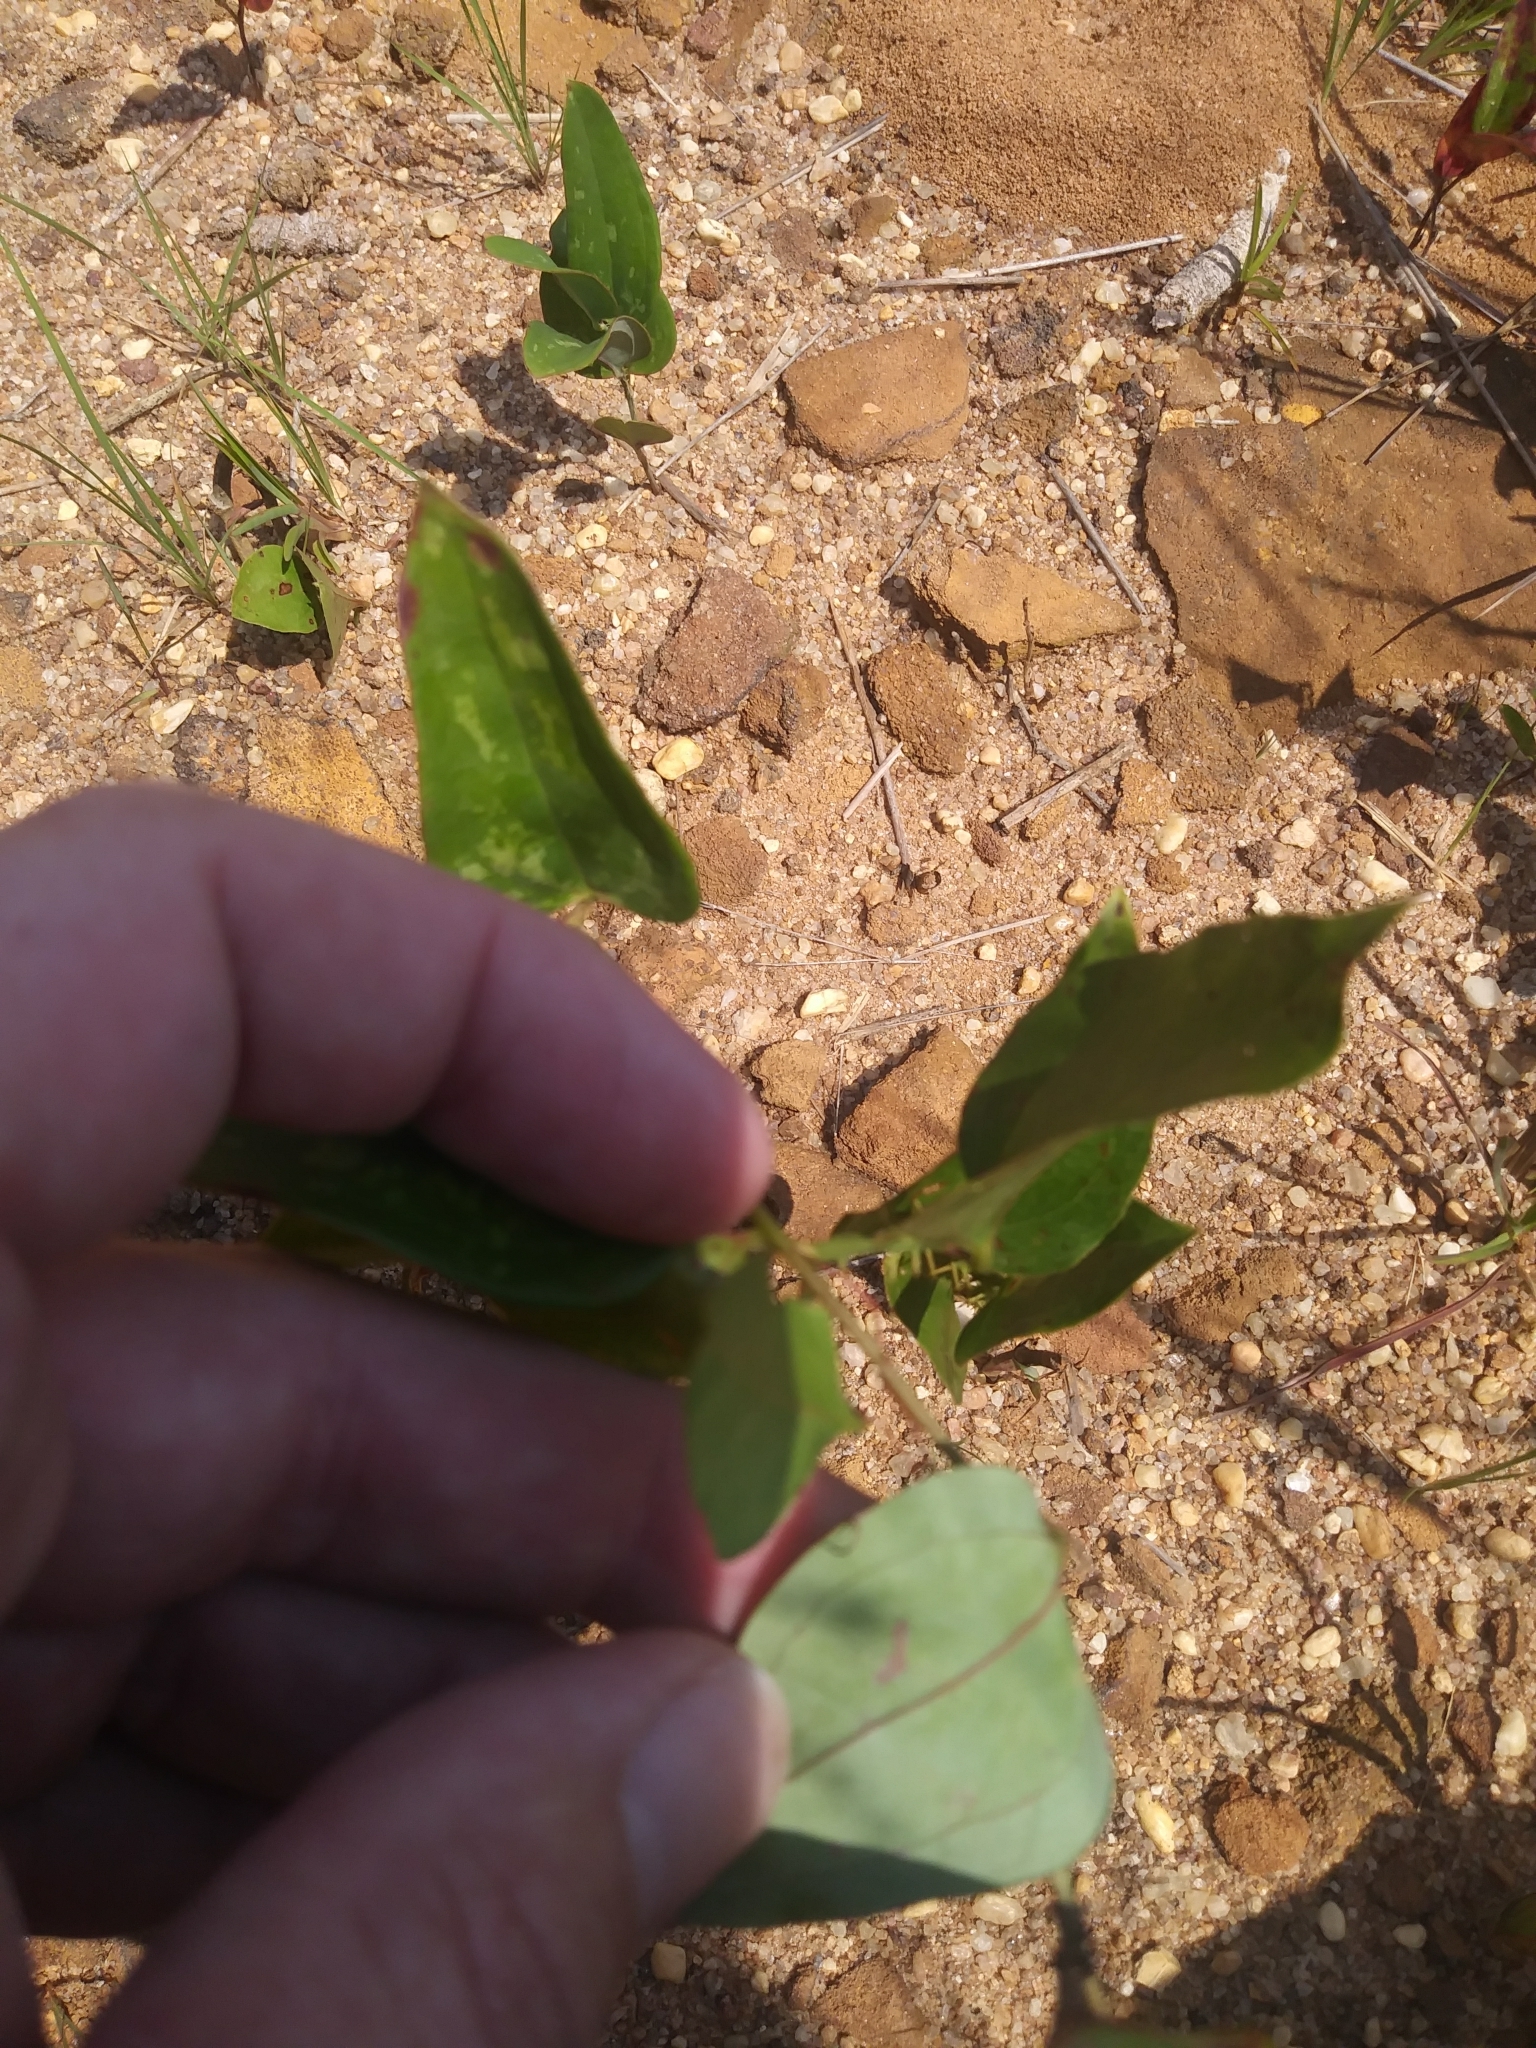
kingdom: Plantae
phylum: Tracheophyta
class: Liliopsida
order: Liliales
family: Smilacaceae
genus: Smilax
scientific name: Smilax glauca
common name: Cat greenbrier
